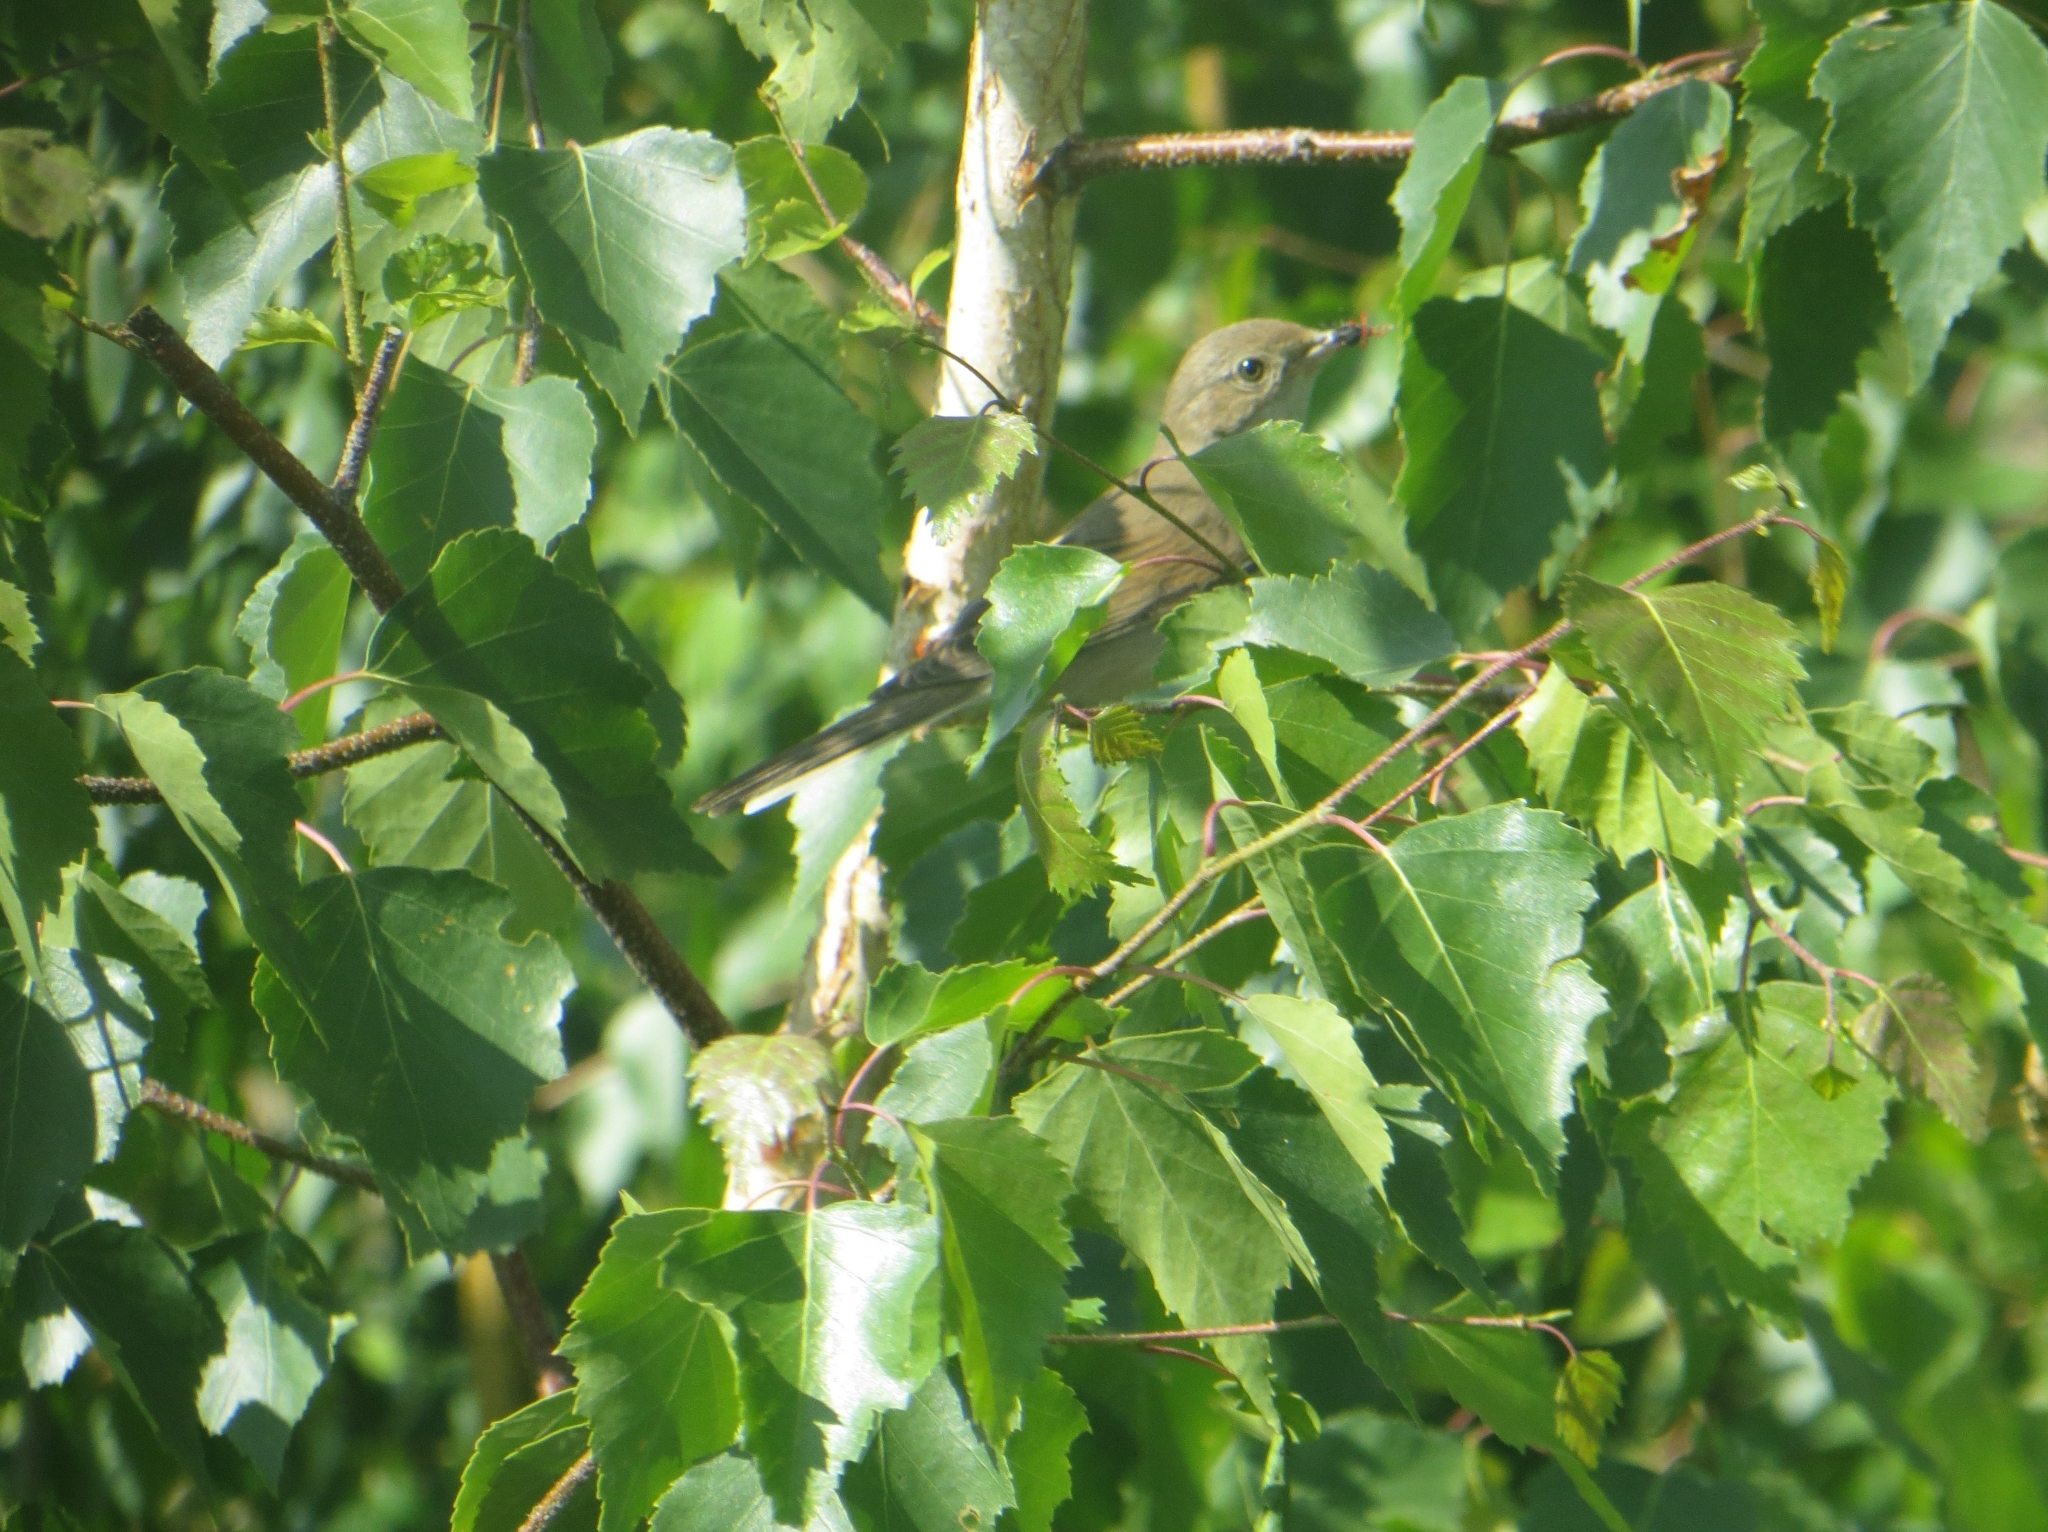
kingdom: Animalia
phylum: Chordata
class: Aves
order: Passeriformes
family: Sylviidae
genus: Sylvia
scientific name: Sylvia communis
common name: Common whitethroat
